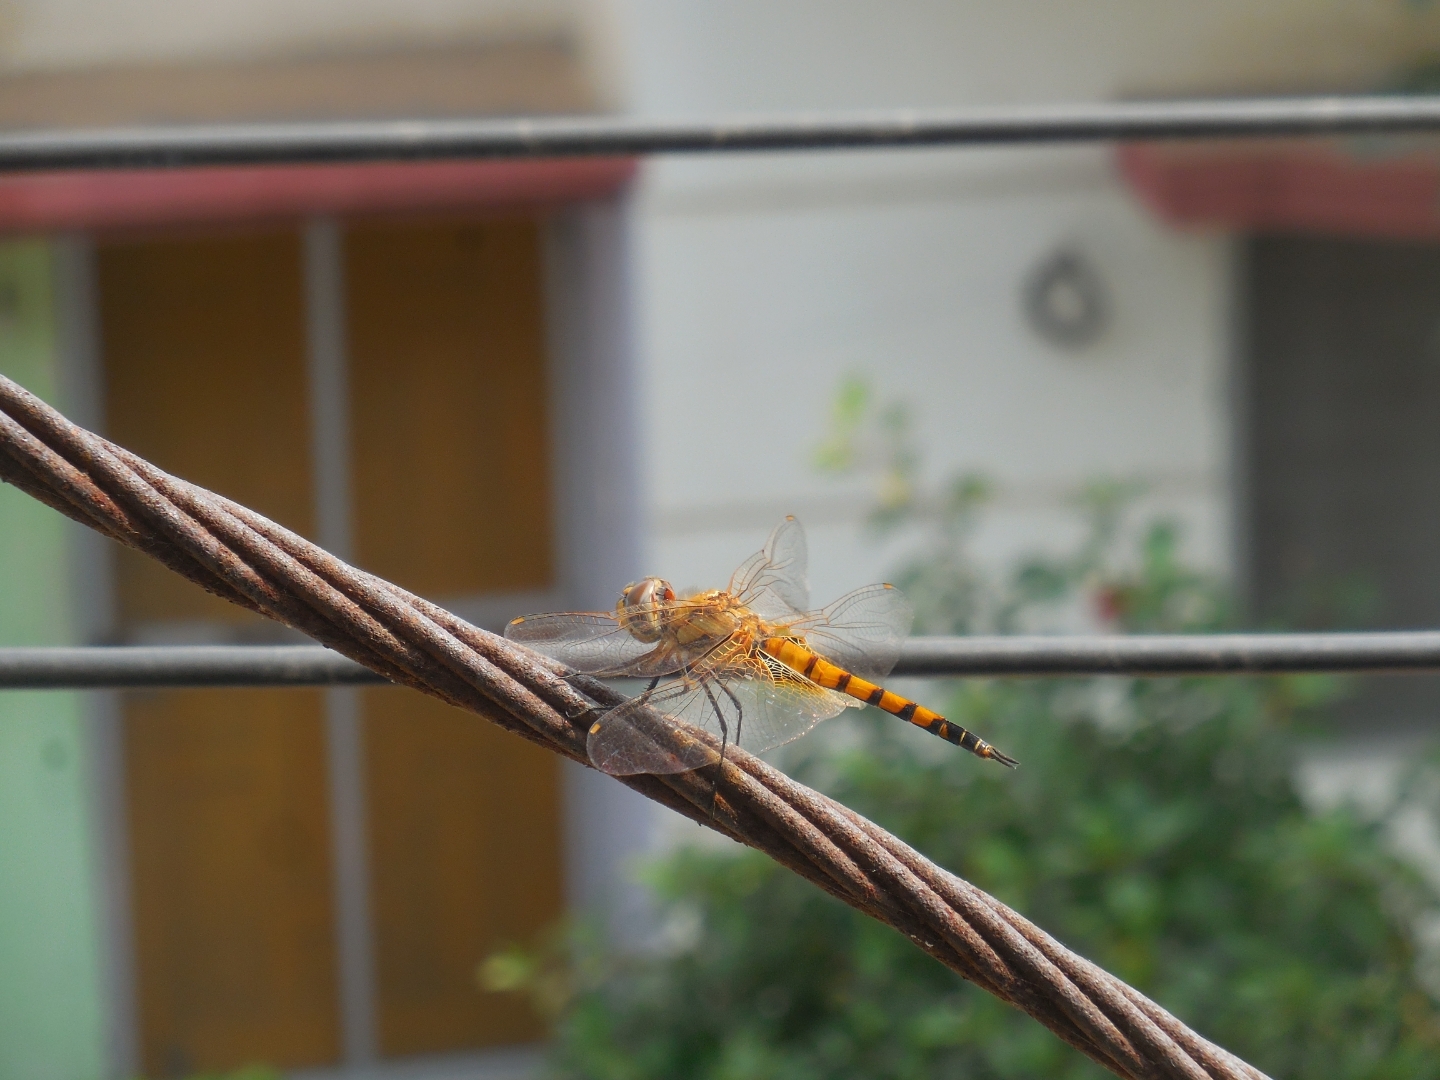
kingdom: Animalia
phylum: Arthropoda
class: Insecta
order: Odonata
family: Libellulidae
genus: Tramea
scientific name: Tramea basilaris
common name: Keyhole glider
